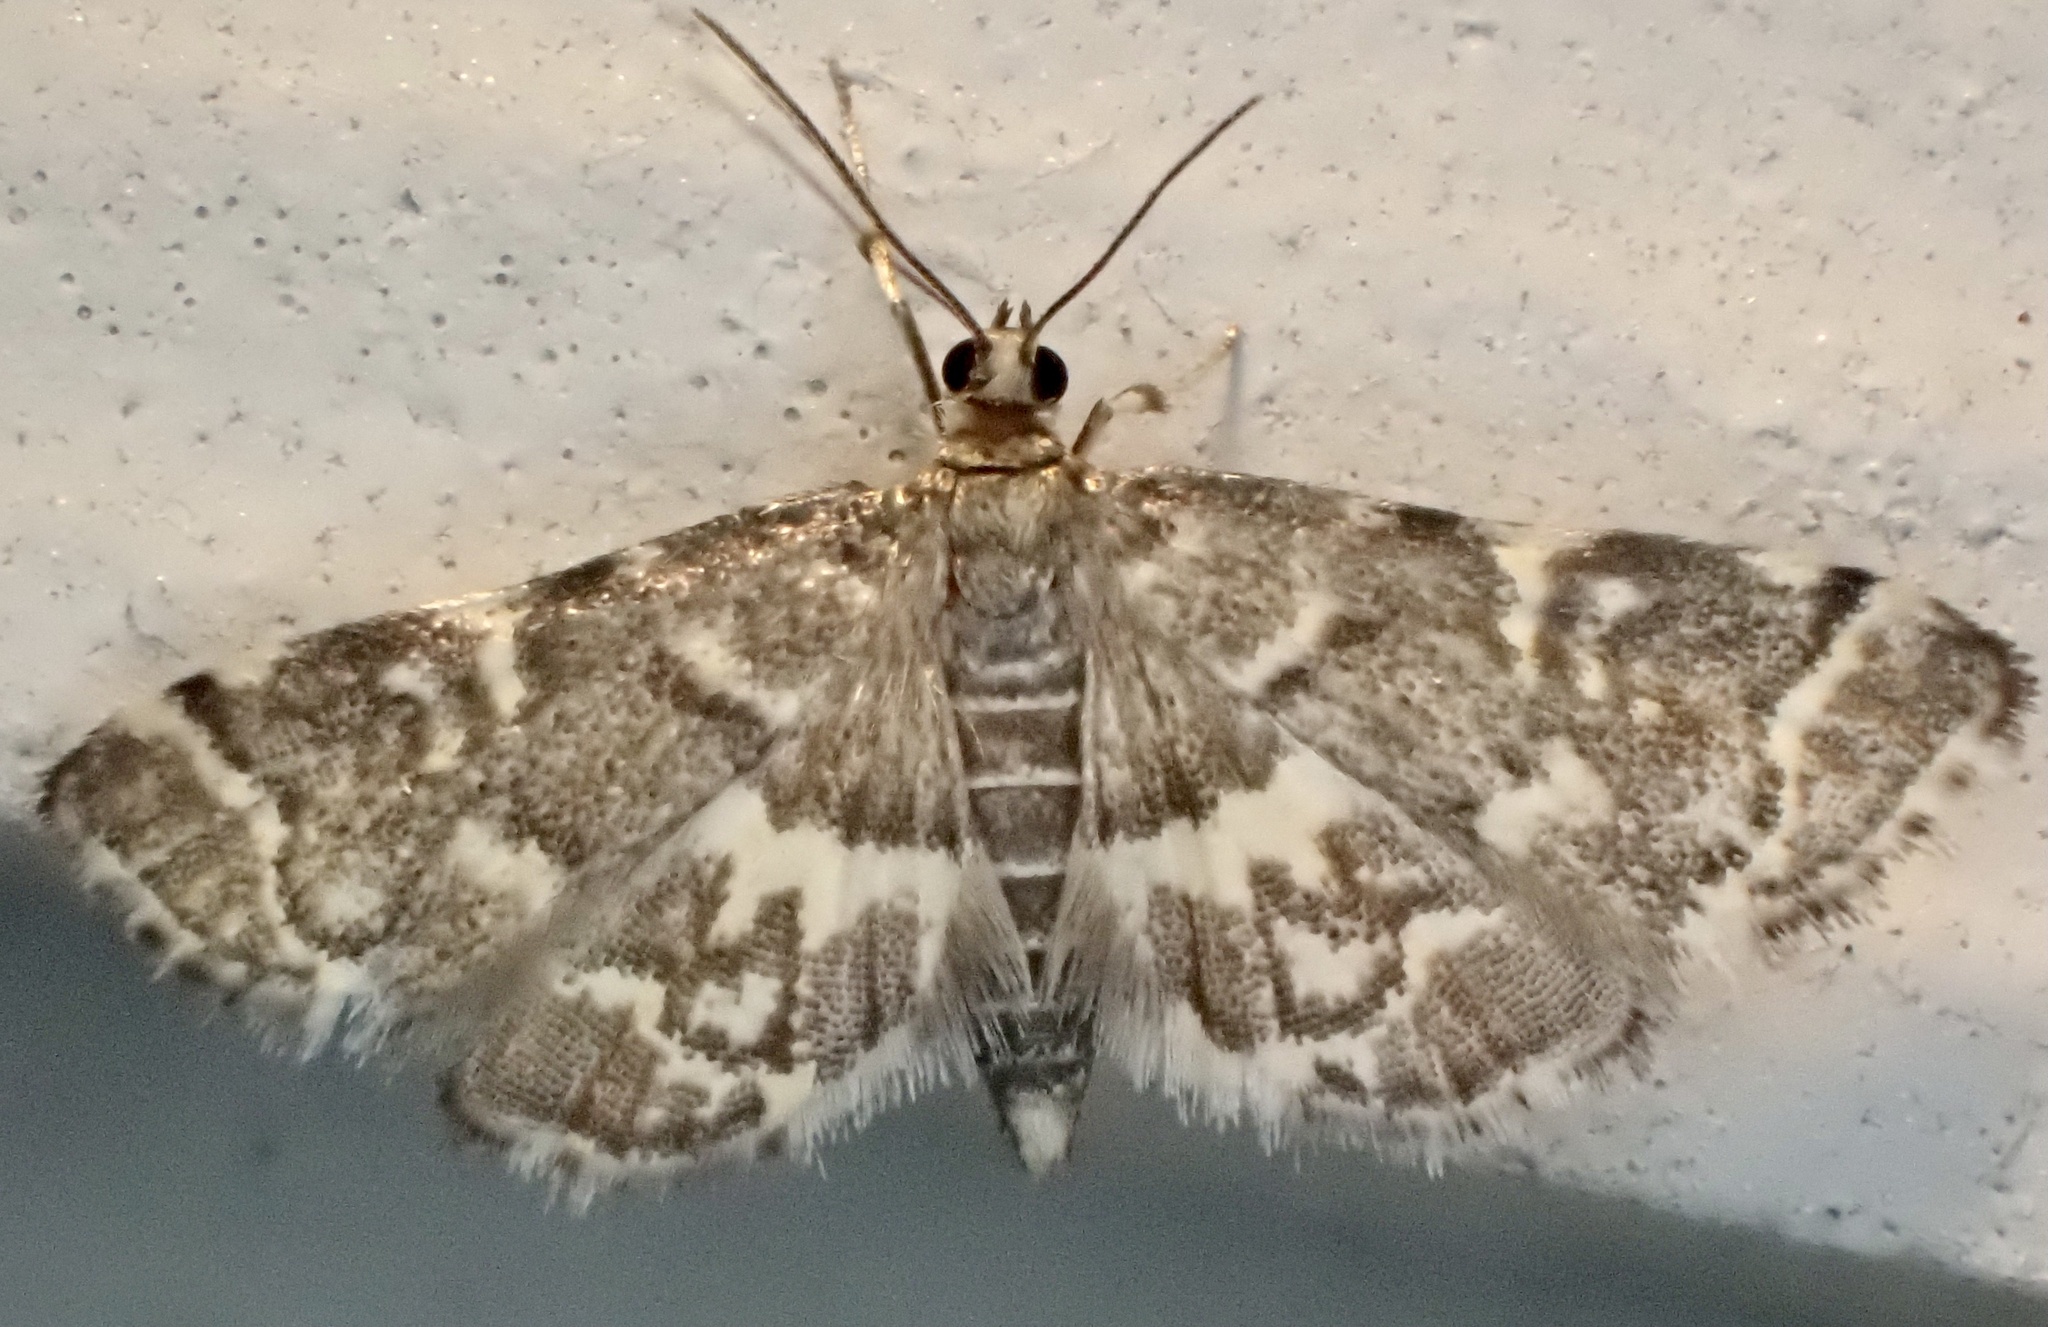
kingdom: Animalia
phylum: Arthropoda
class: Insecta
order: Lepidoptera
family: Crambidae
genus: Anageshna
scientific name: Anageshna primordialis
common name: Yellow-spotted webworm moth
